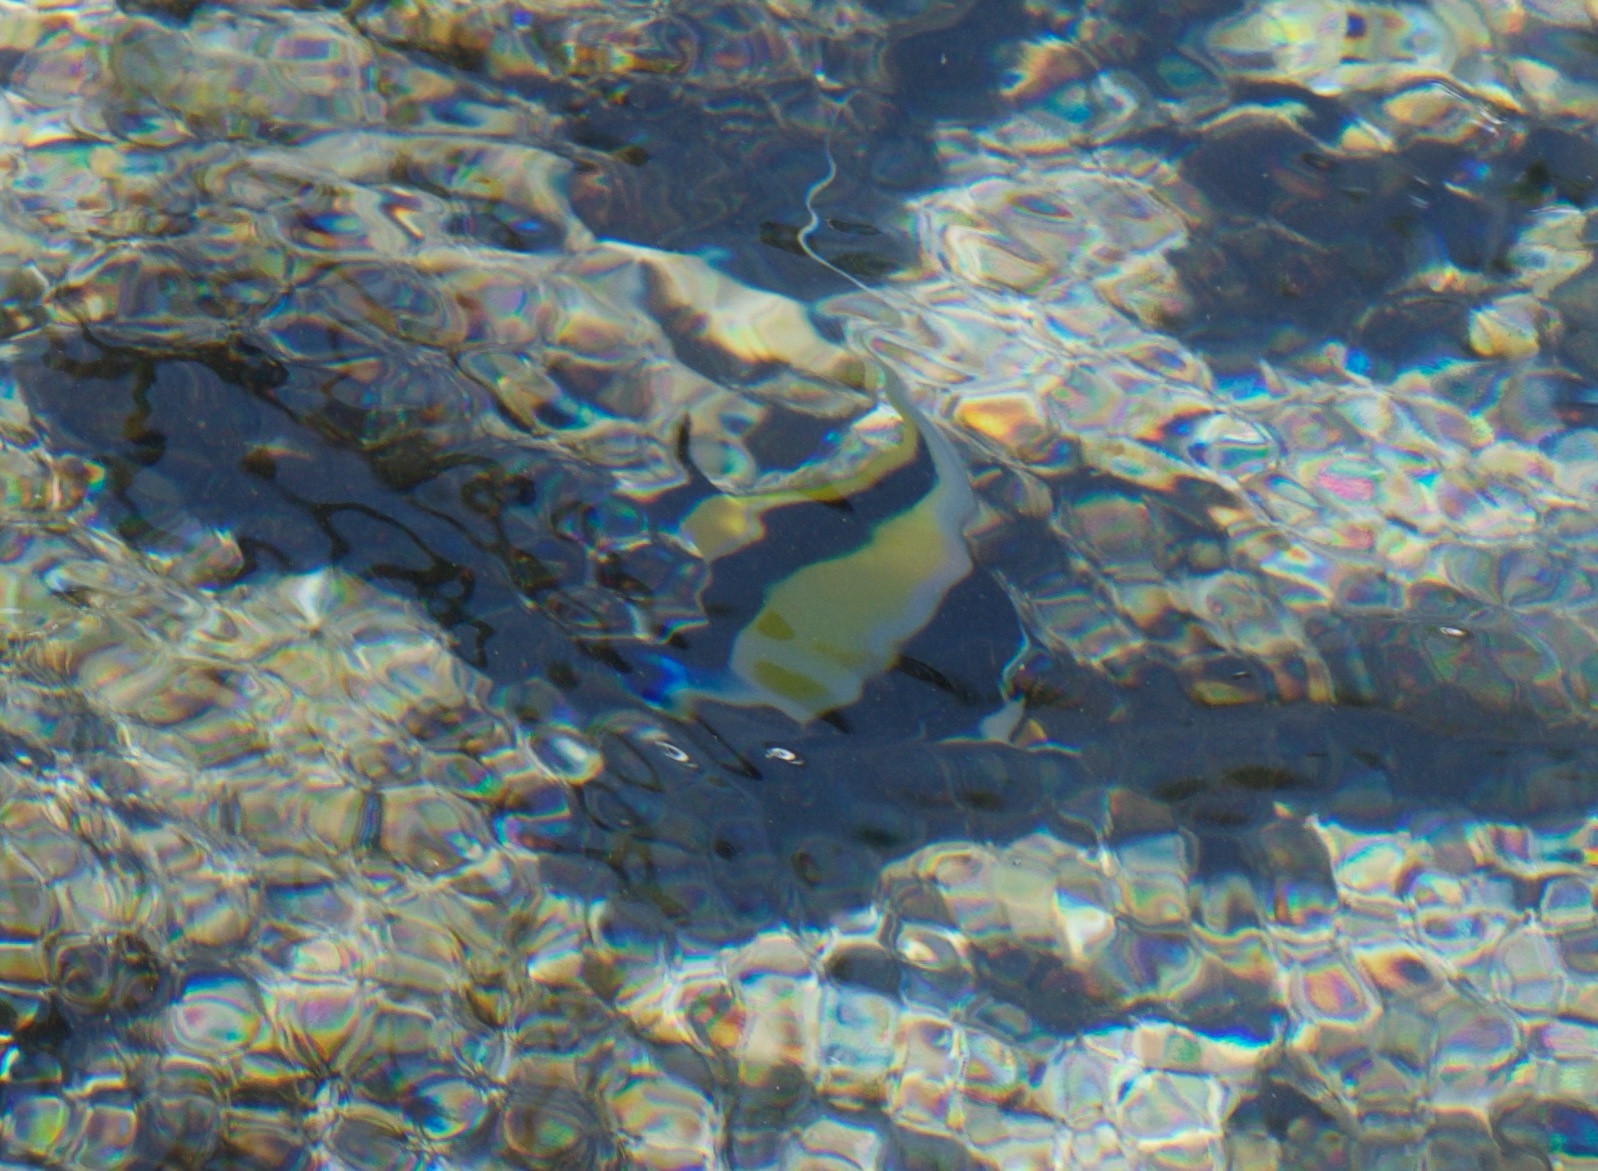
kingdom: Animalia
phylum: Chordata
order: Perciformes
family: Zanclidae
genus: Zanclus
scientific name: Zanclus cornutus
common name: Moorish idol
